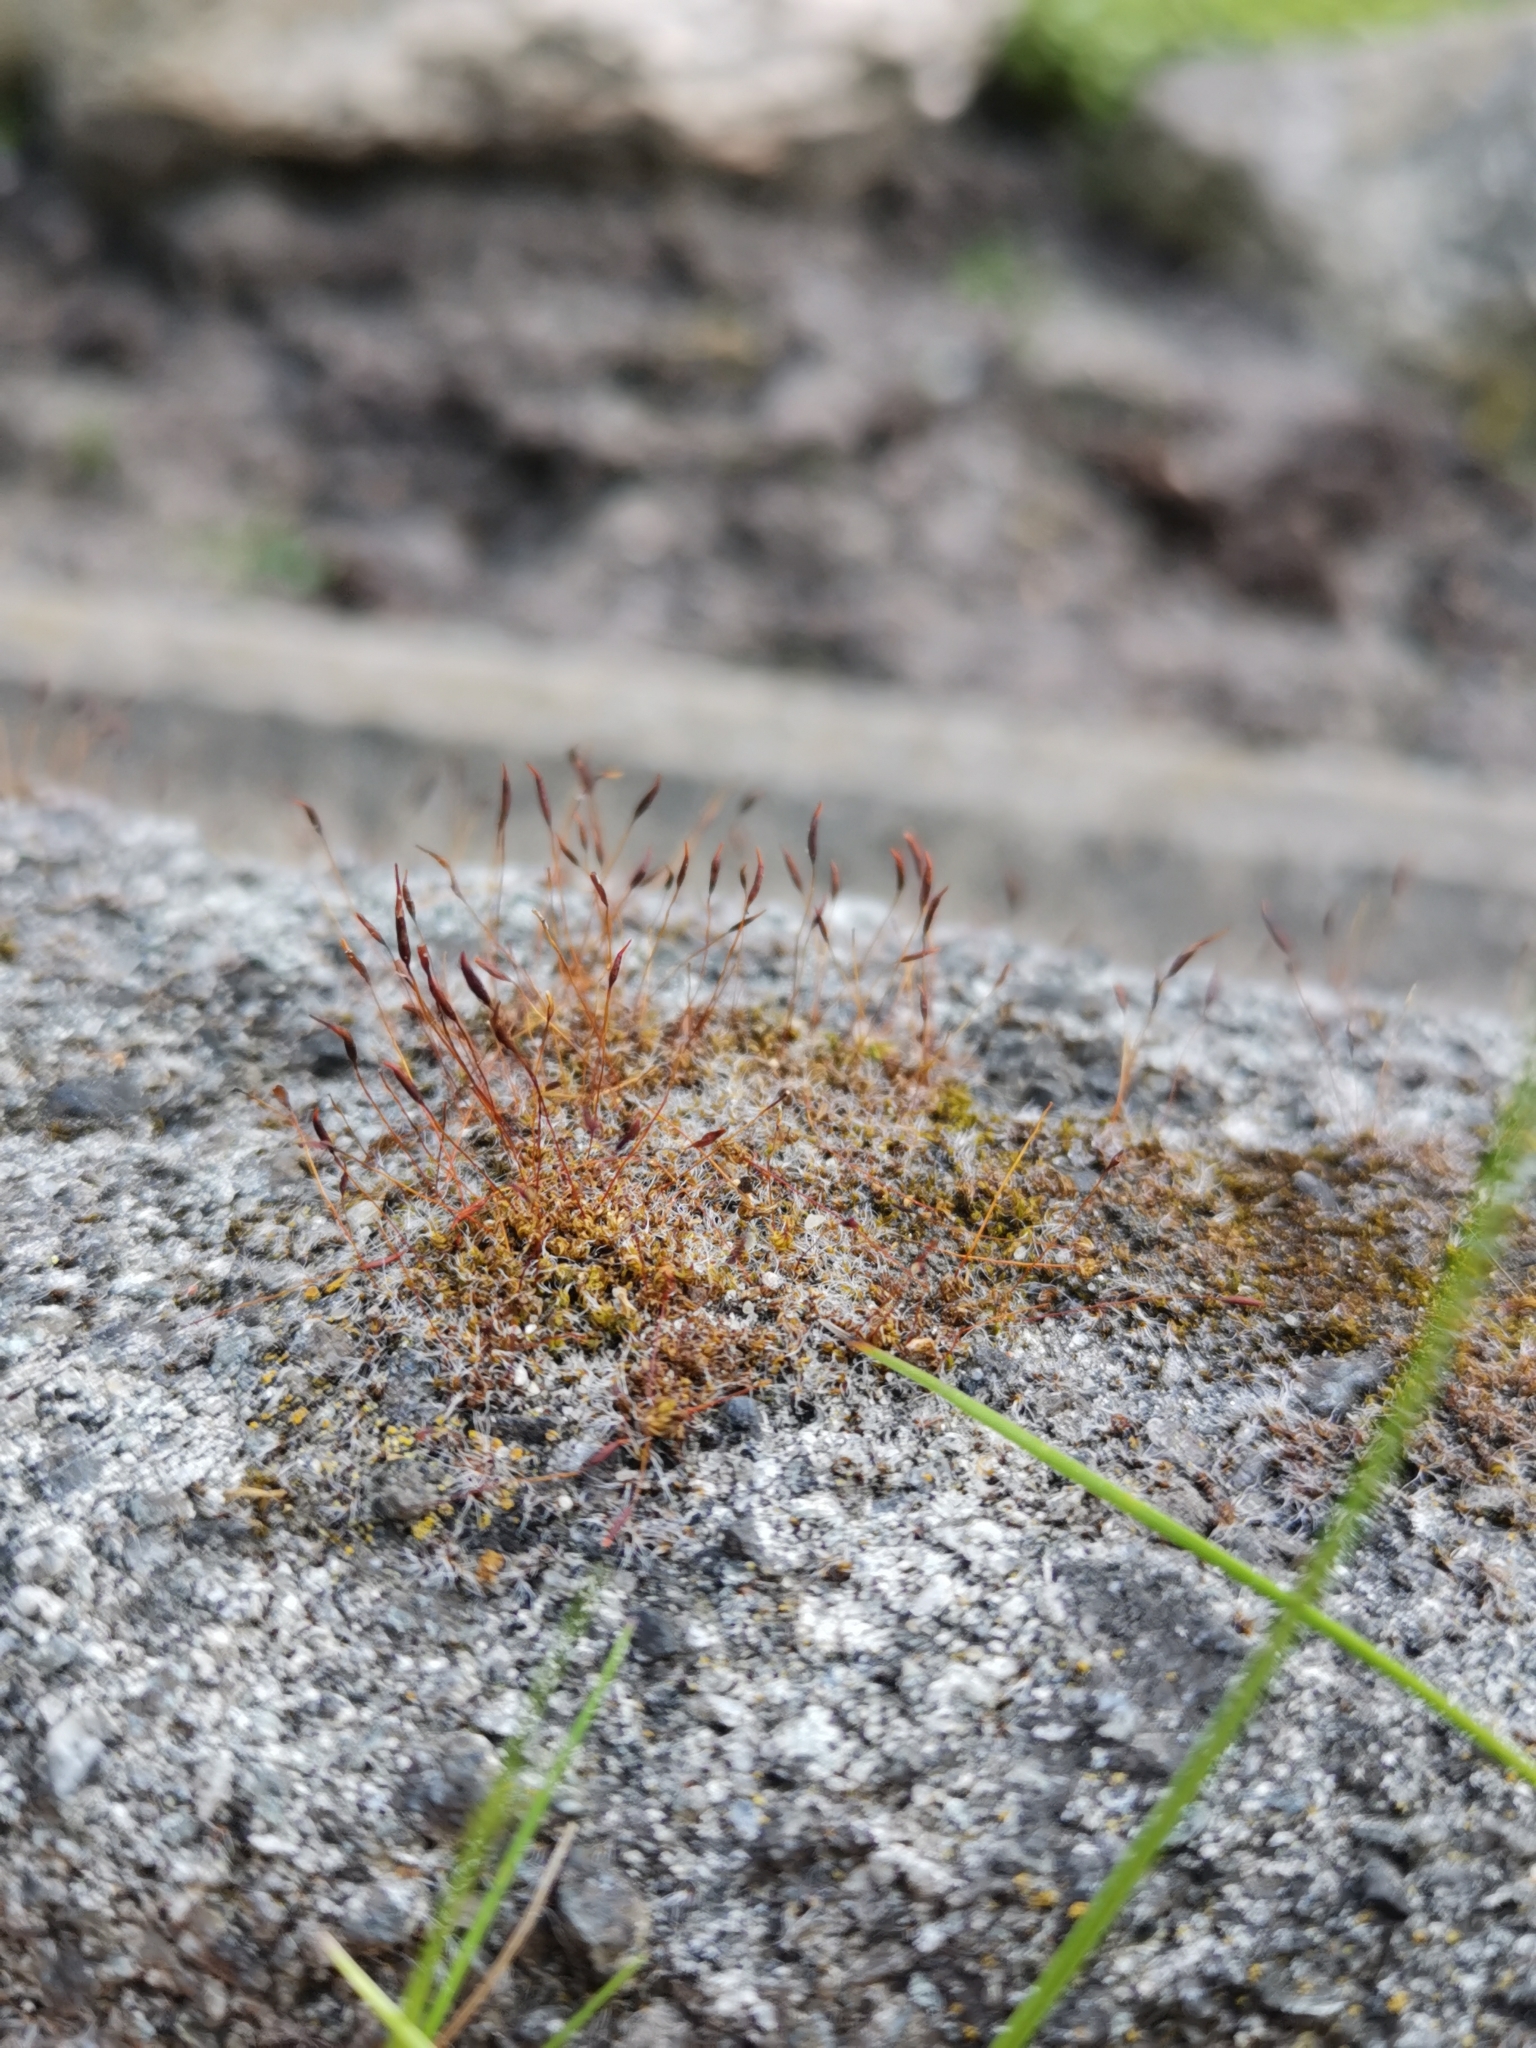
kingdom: Plantae
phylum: Bryophyta
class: Bryopsida
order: Pottiales
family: Pottiaceae
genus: Tortula
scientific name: Tortula muralis
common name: Wall screw-moss
